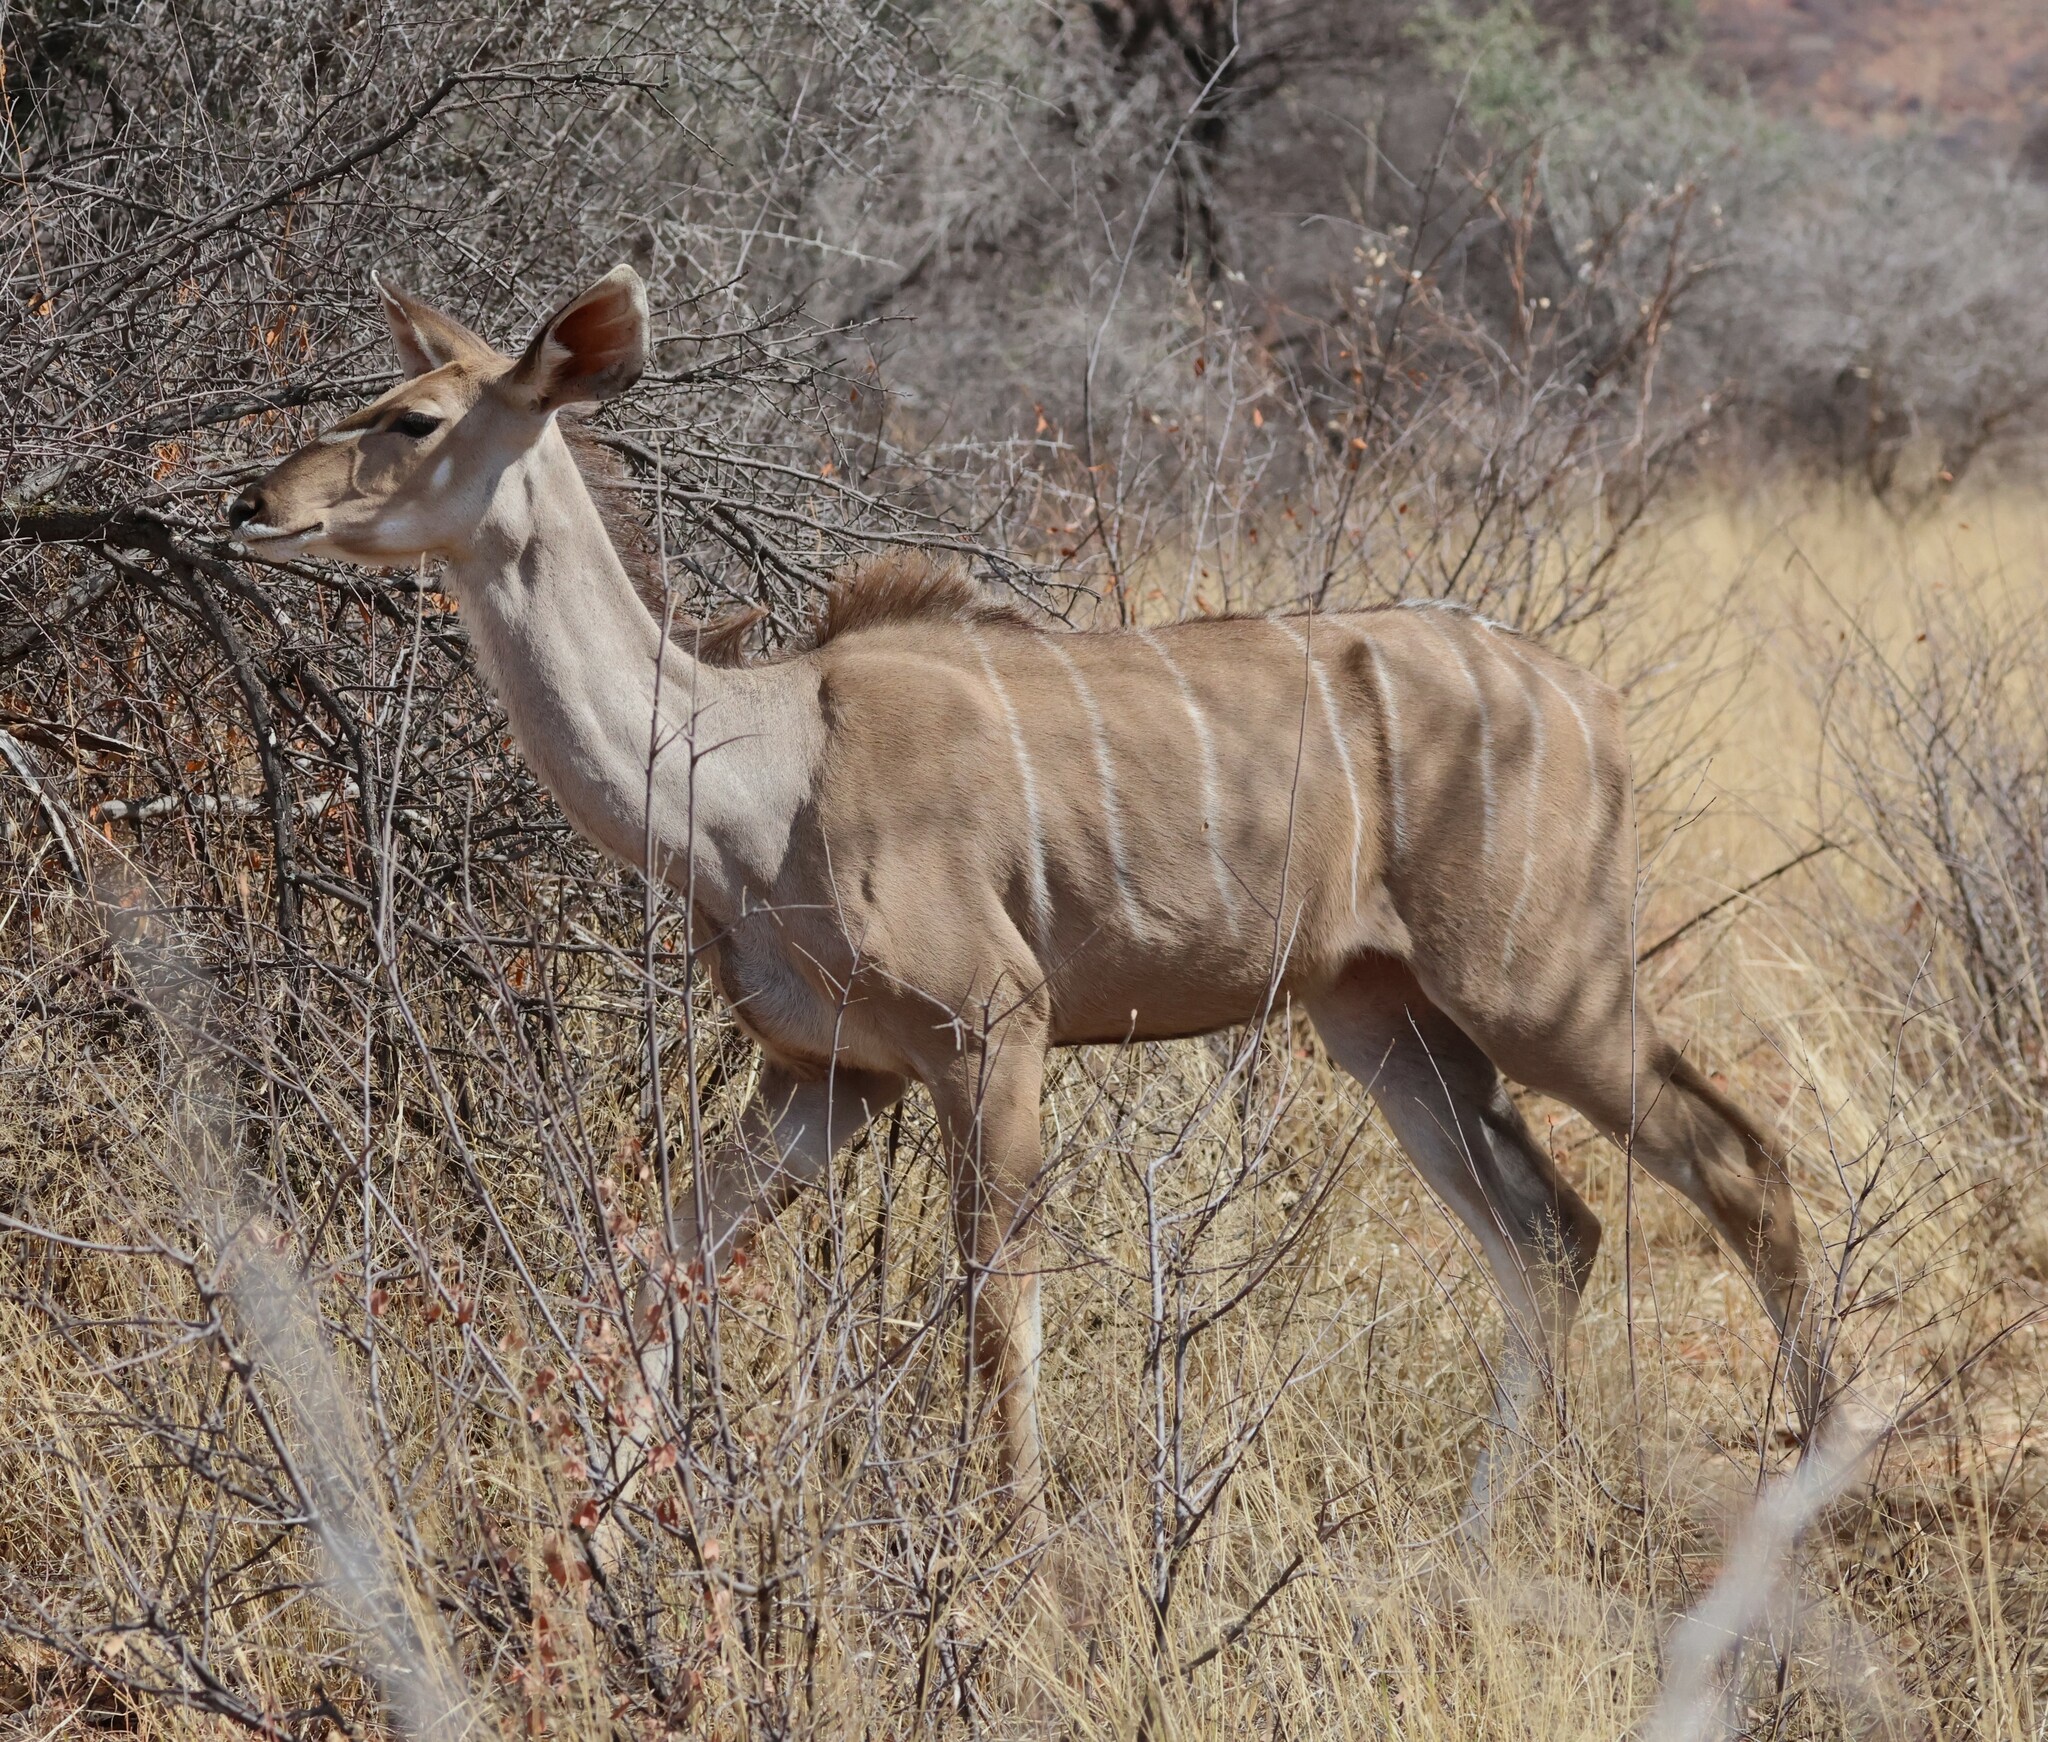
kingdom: Animalia
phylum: Chordata
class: Mammalia
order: Artiodactyla
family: Bovidae
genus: Tragelaphus
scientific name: Tragelaphus strepsiceros
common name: Greater kudu
